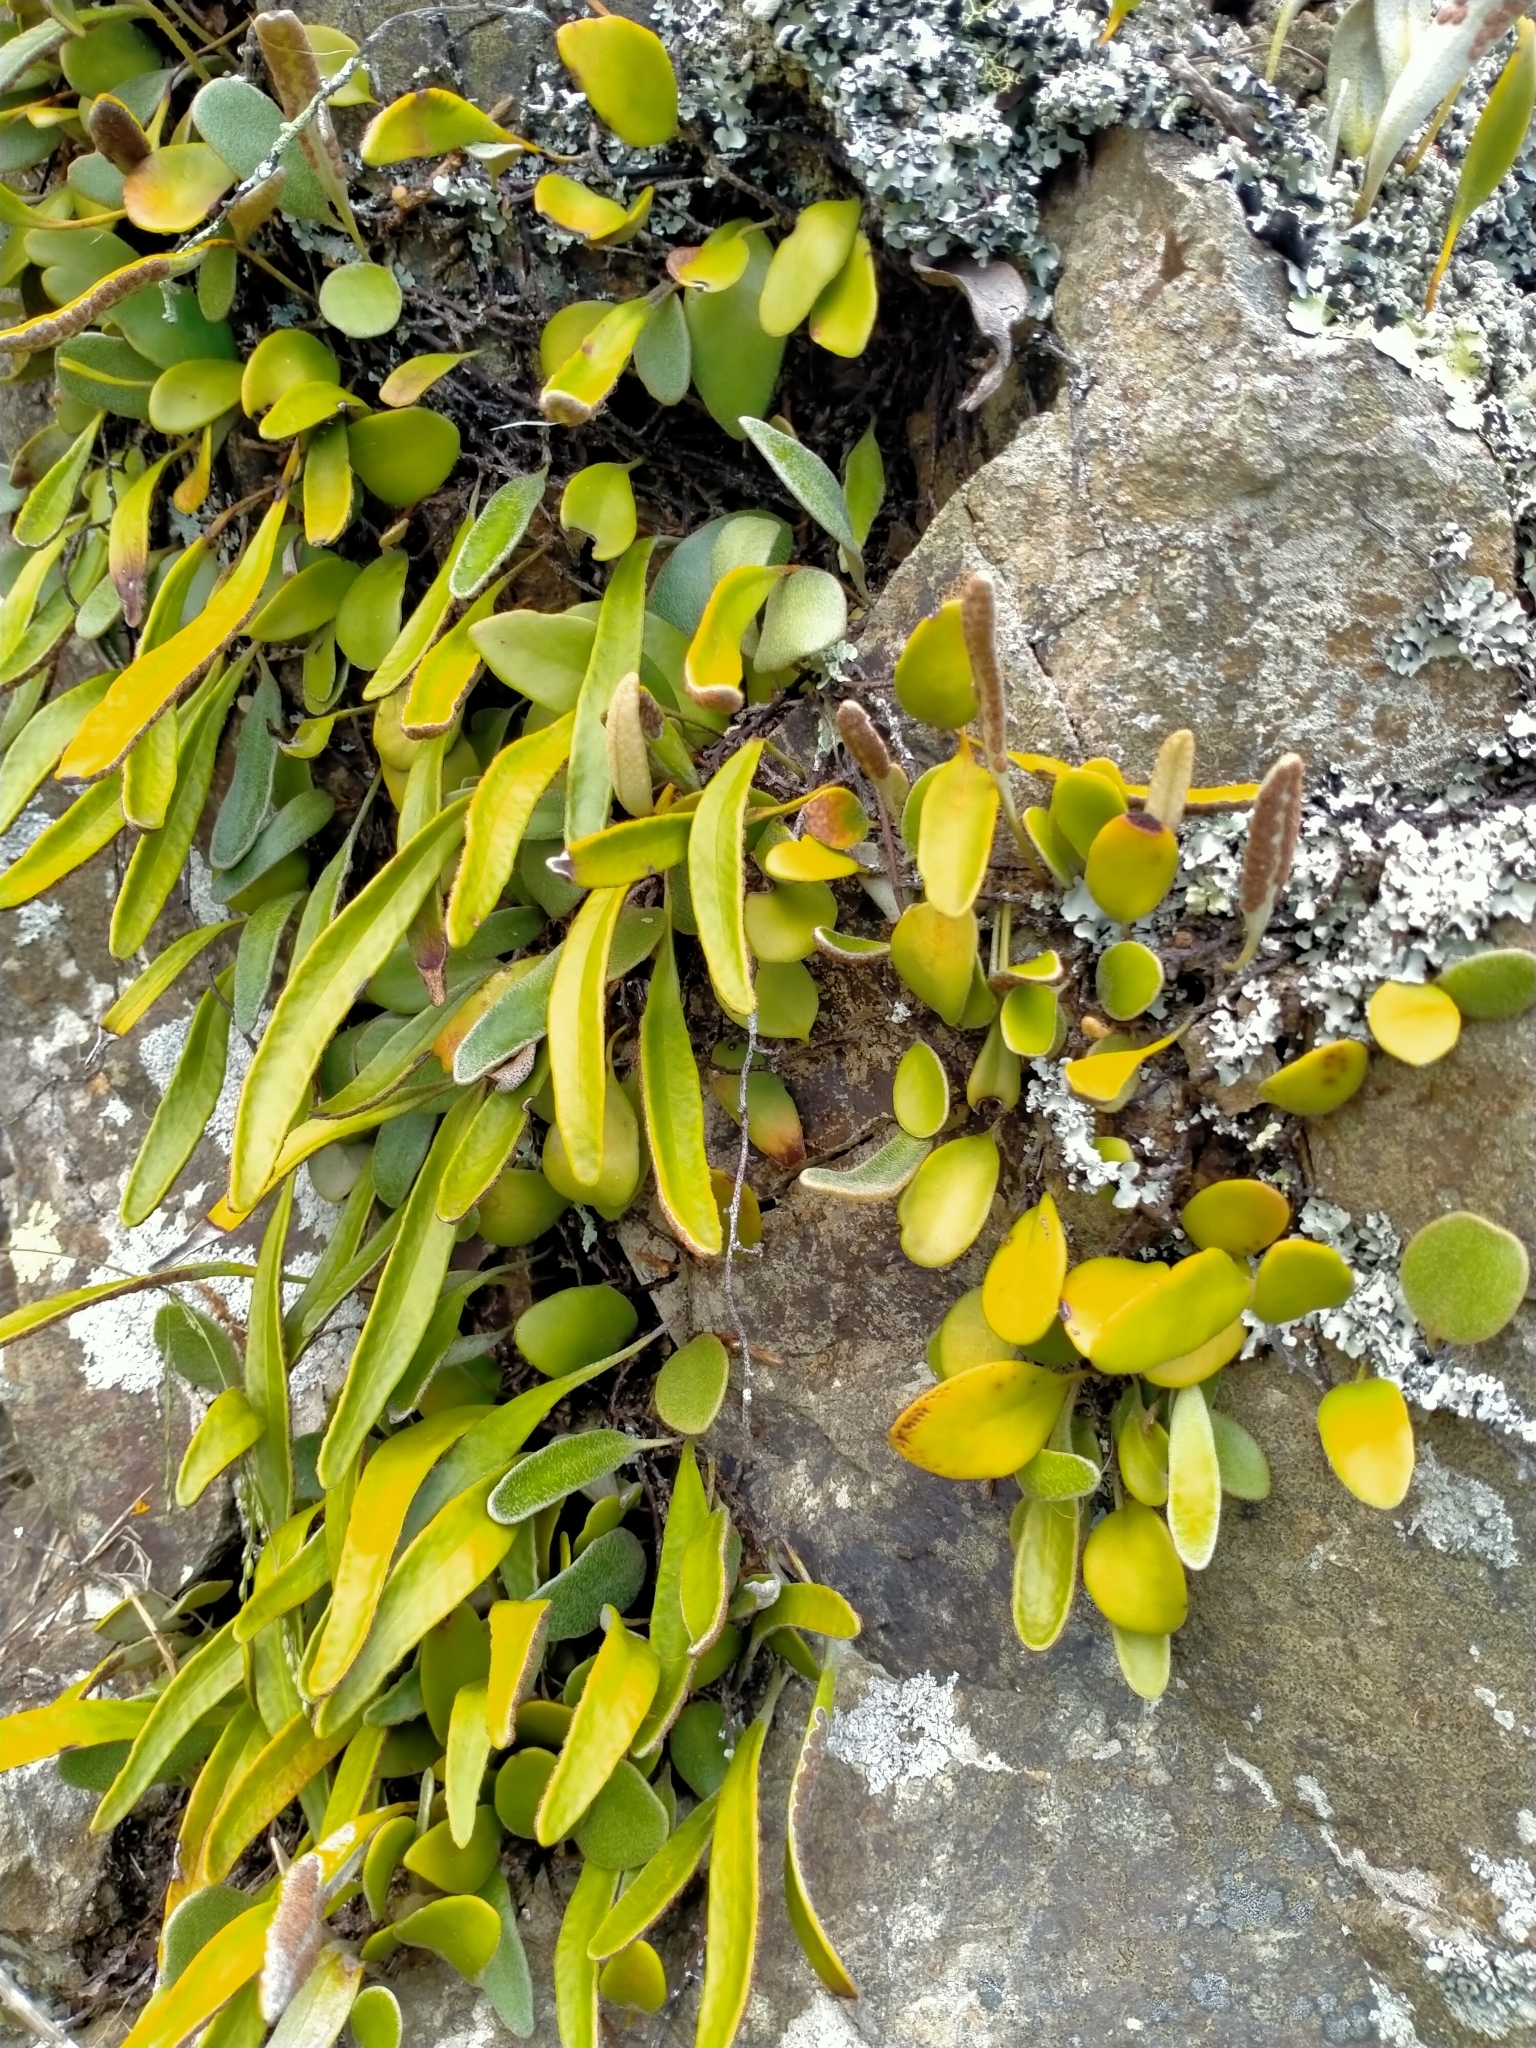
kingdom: Plantae
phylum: Tracheophyta
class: Polypodiopsida
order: Polypodiales
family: Polypodiaceae
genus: Pyrrosia
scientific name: Pyrrosia eleagnifolia
